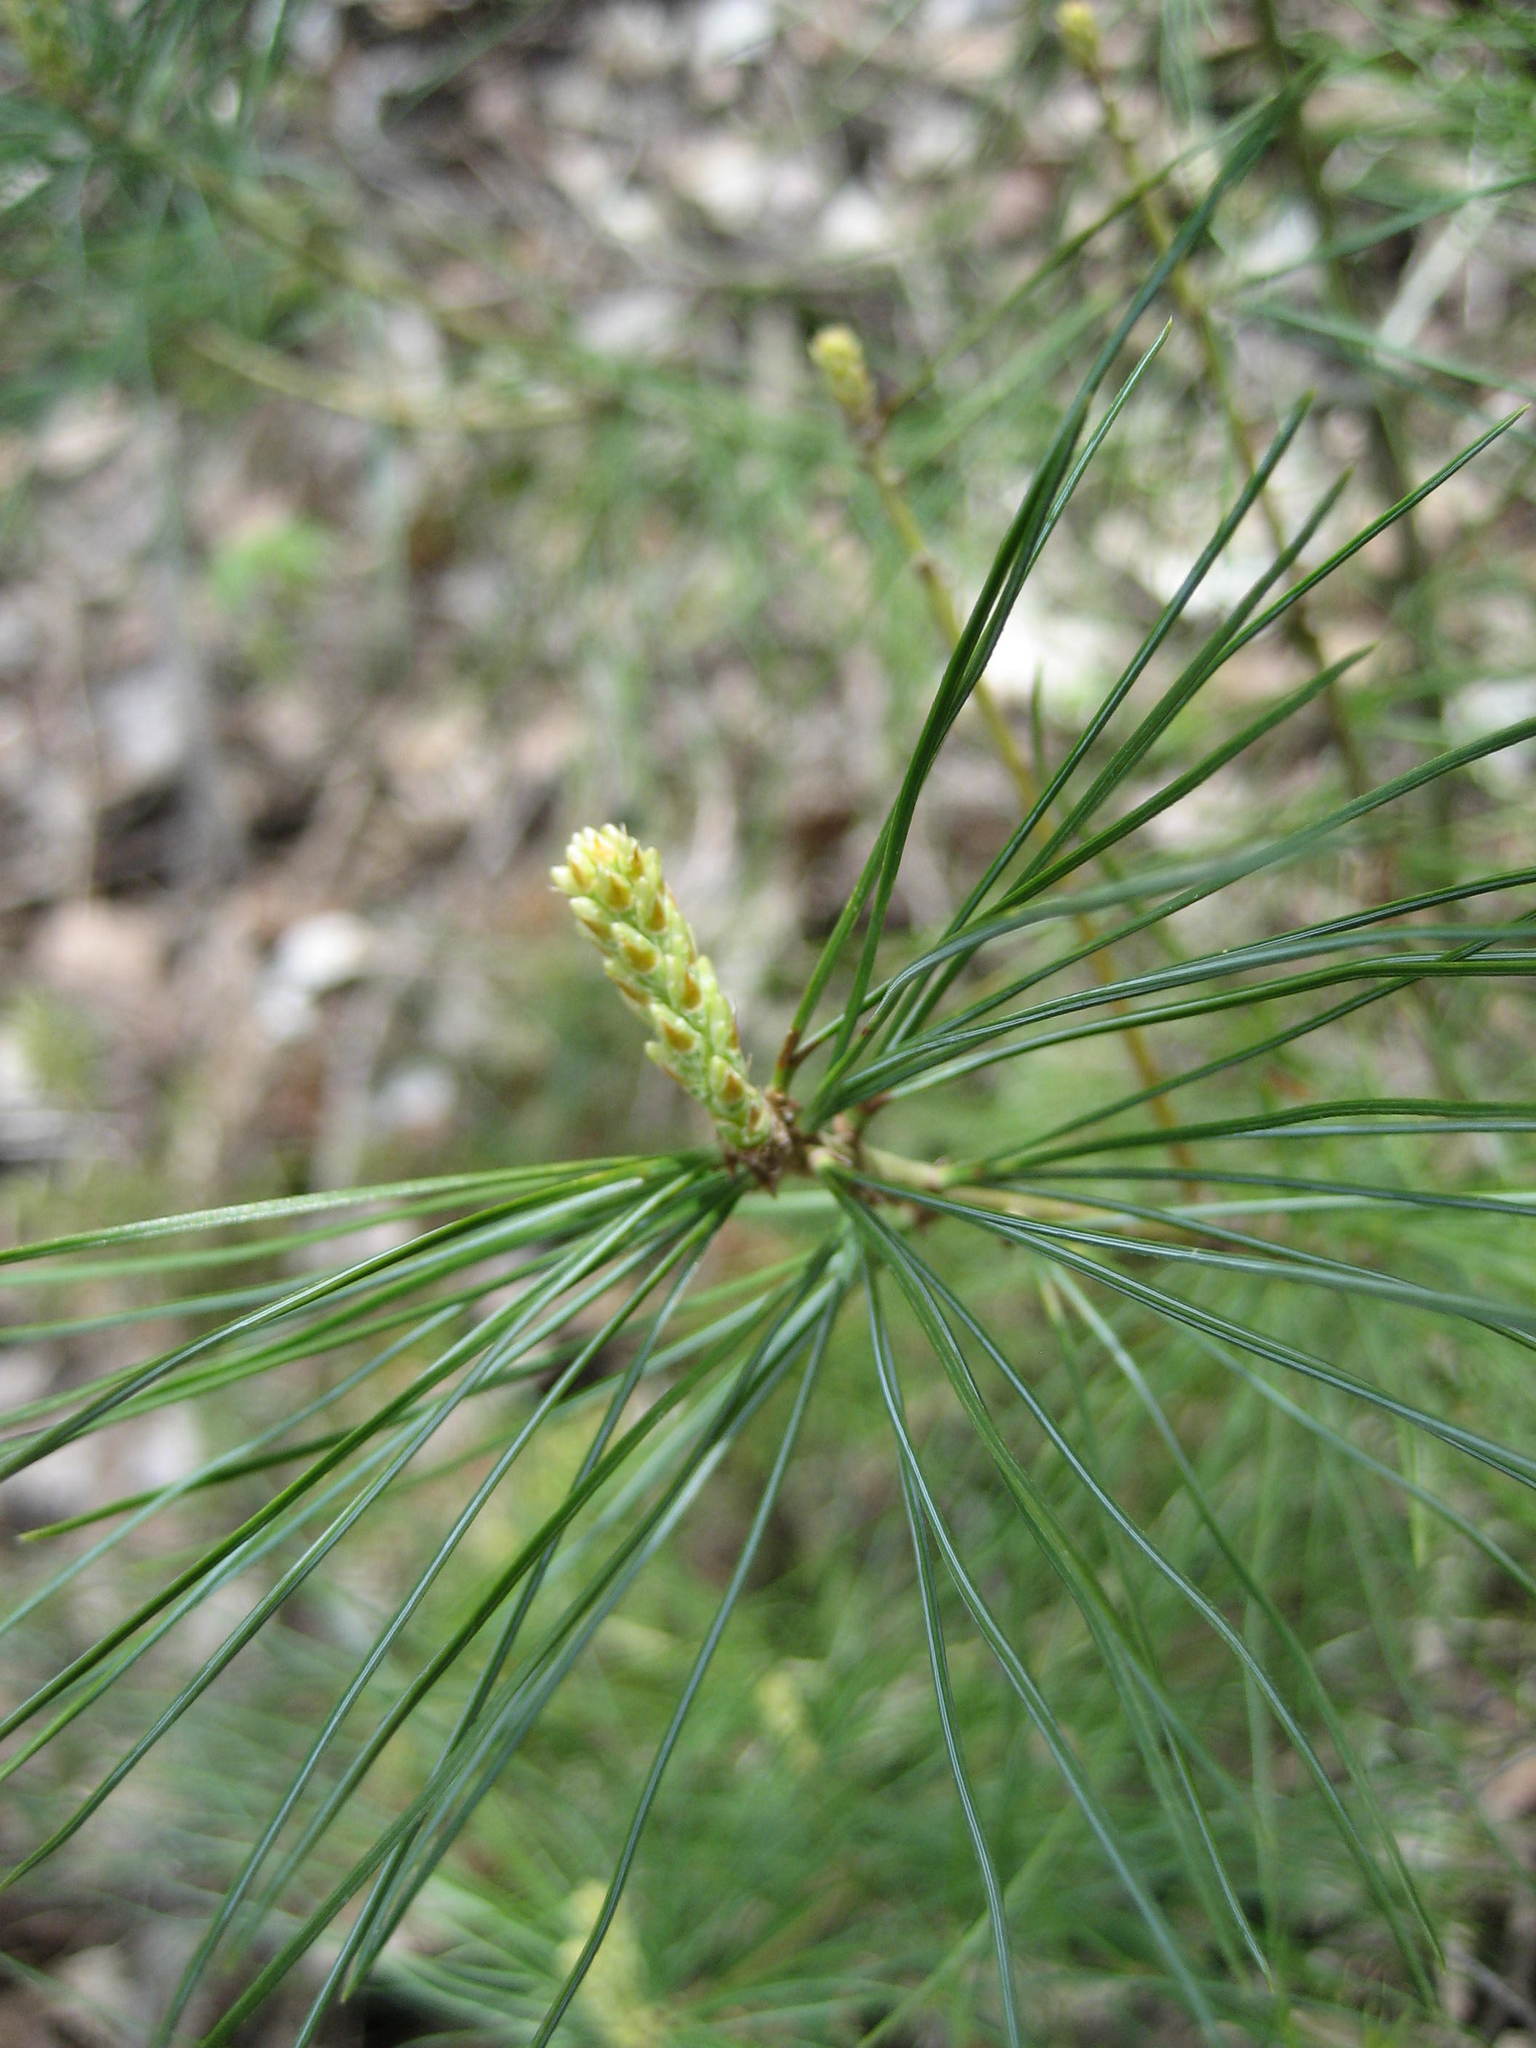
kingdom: Plantae
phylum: Tracheophyta
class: Pinopsida
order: Pinales
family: Pinaceae
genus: Pinus
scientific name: Pinus strobus
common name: Weymouth pine
